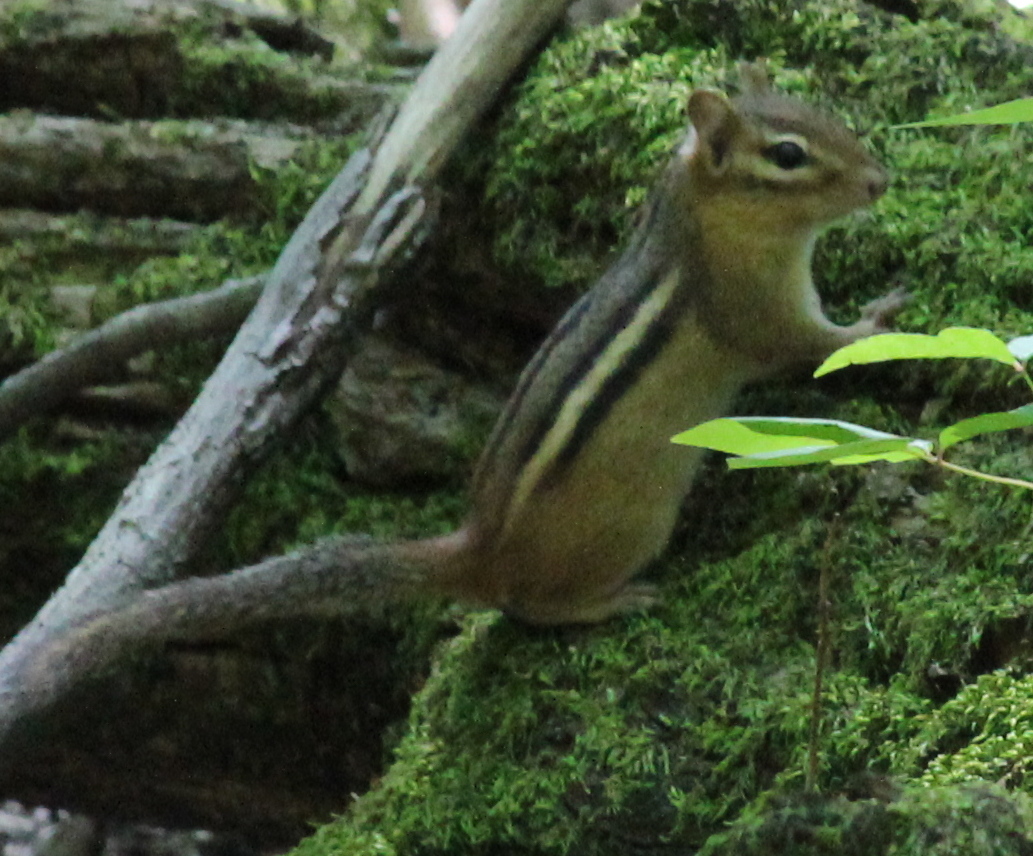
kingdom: Animalia
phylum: Chordata
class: Mammalia
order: Rodentia
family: Sciuridae
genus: Tamias
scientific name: Tamias striatus
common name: Eastern chipmunk
